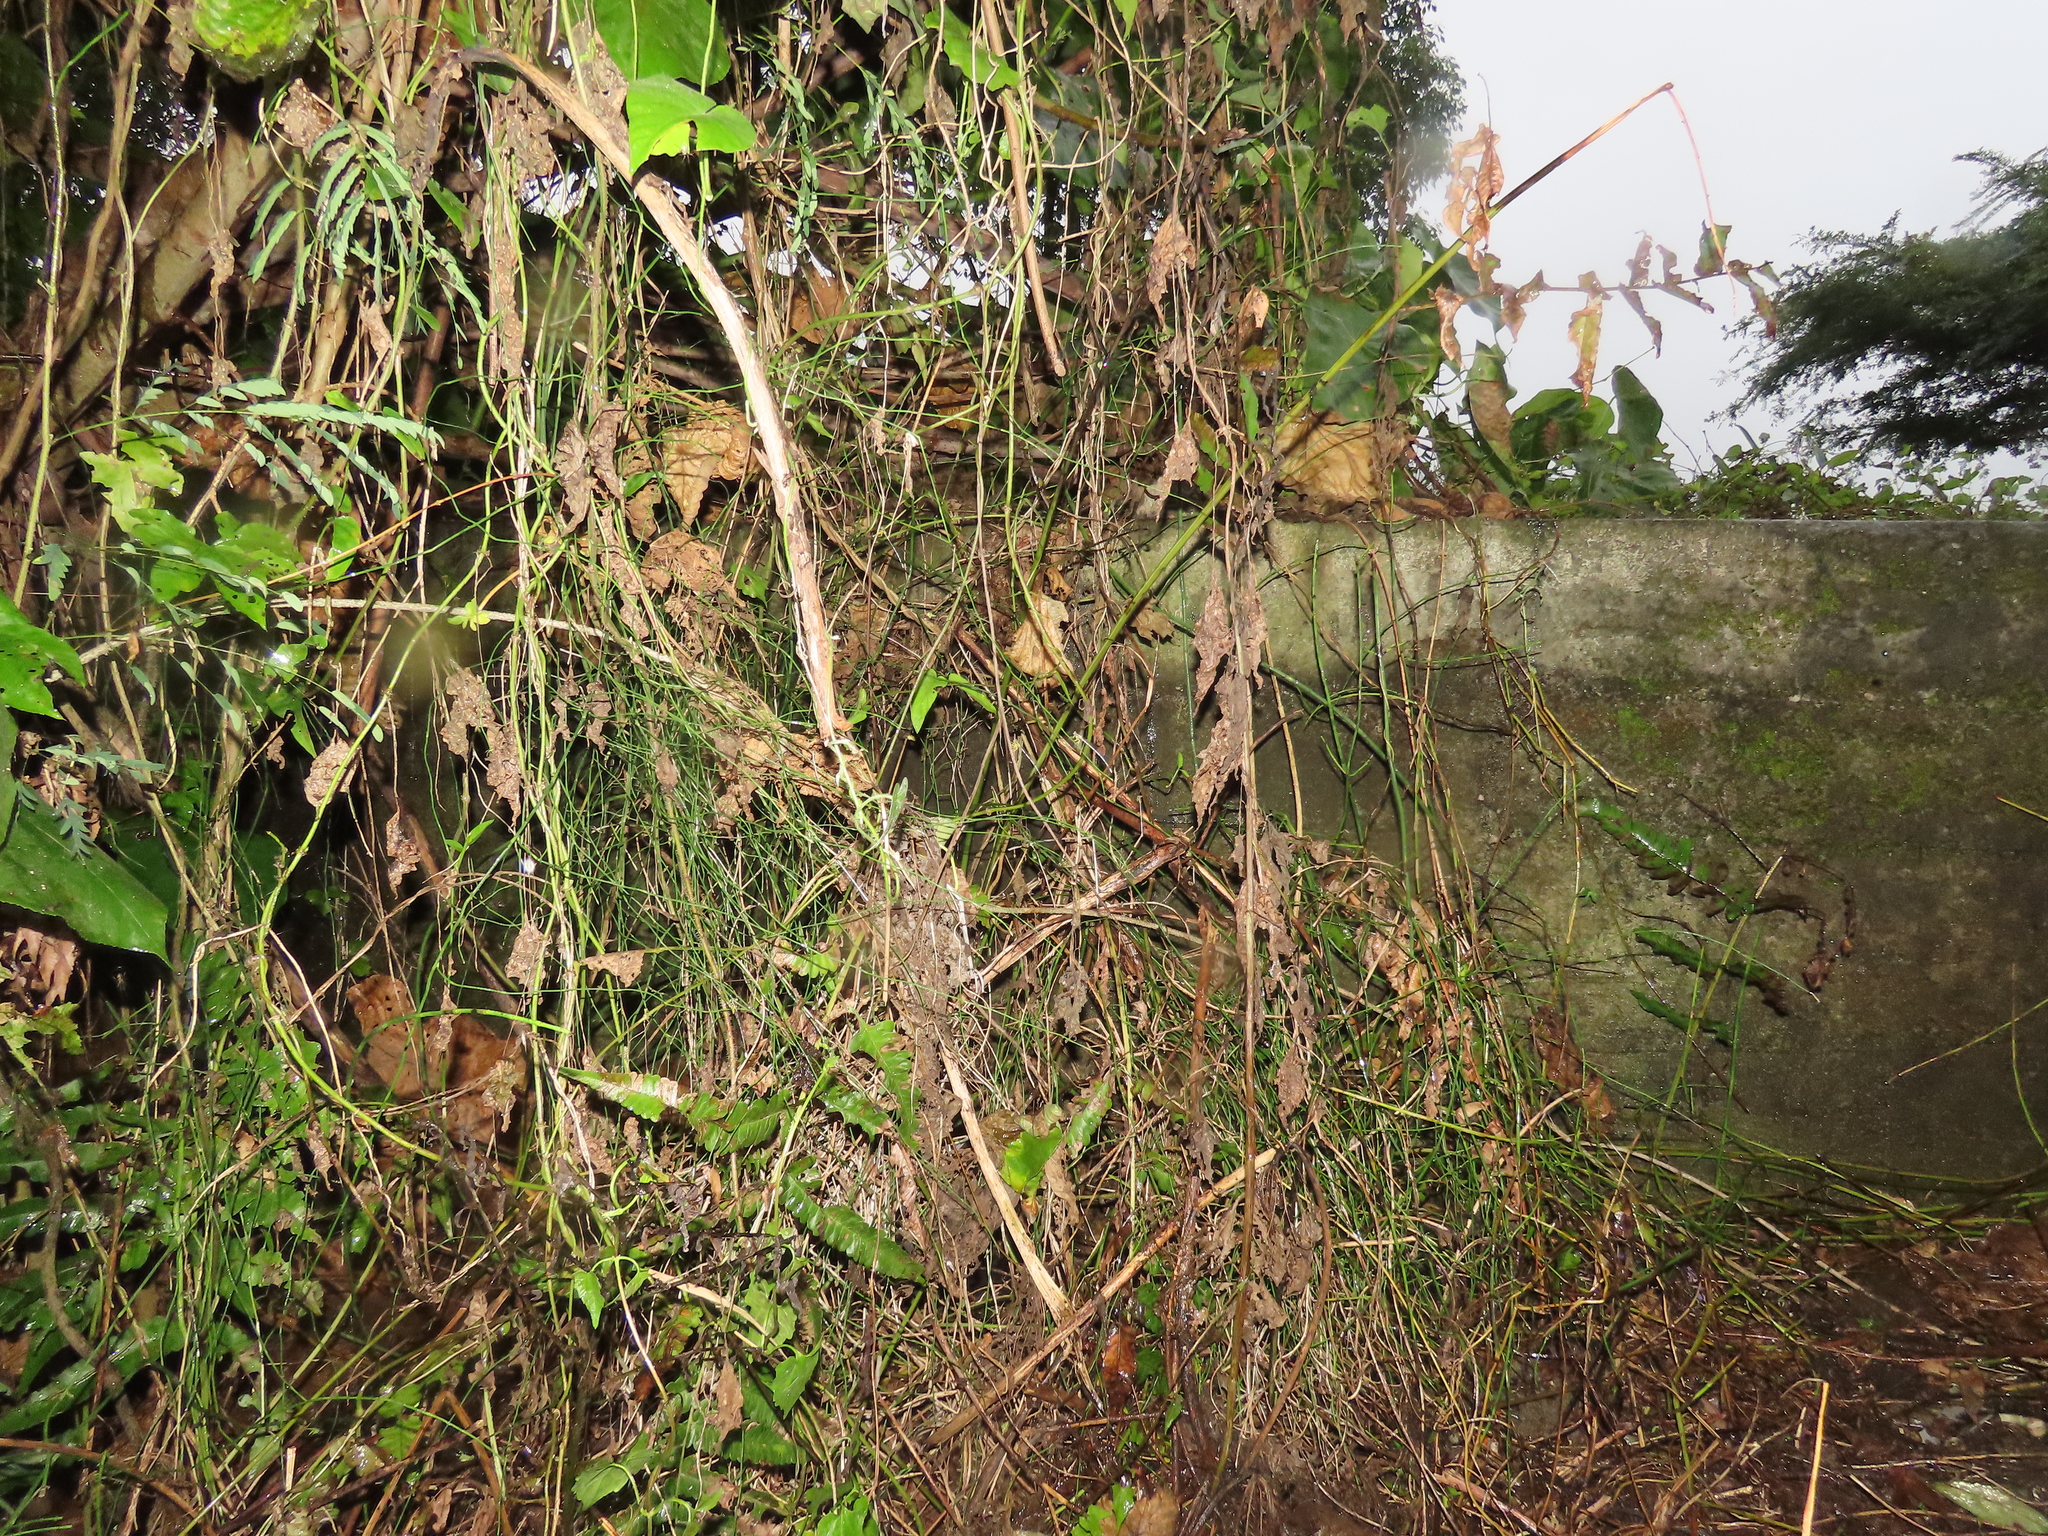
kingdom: Animalia
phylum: Arthropoda
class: Insecta
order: Odonata
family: Platycnemididae
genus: Copera
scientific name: Copera marginipes
